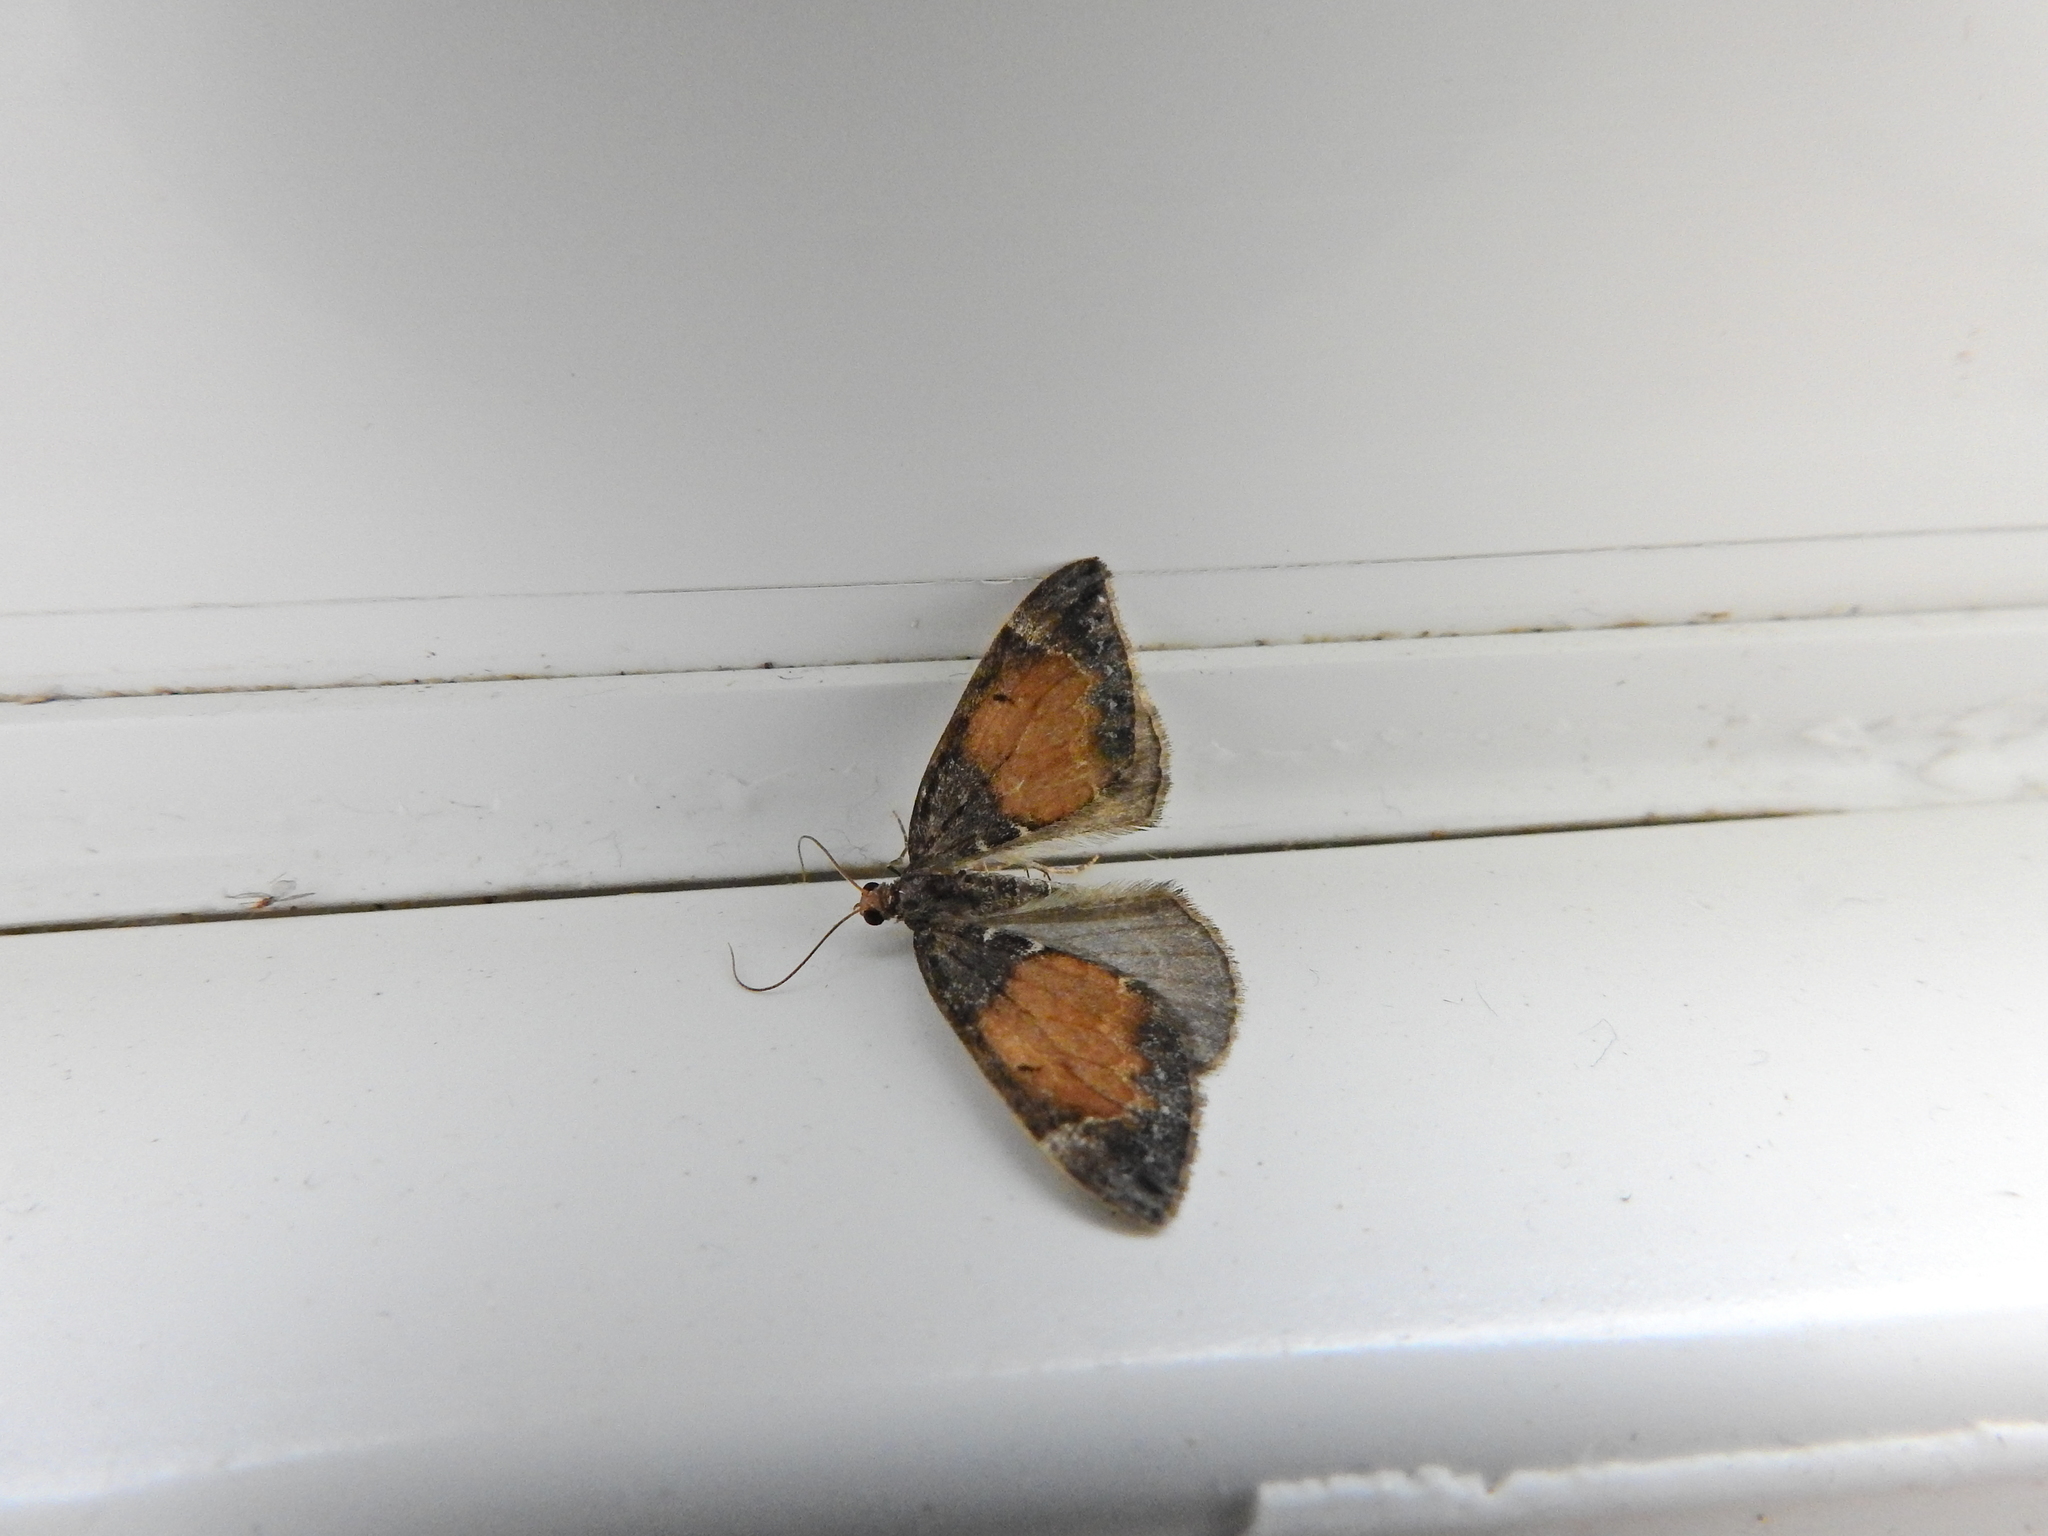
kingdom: Animalia
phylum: Arthropoda
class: Insecta
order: Lepidoptera
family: Geometridae
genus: Dysstroma
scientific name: Dysstroma truncata
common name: Common marbled carpet
